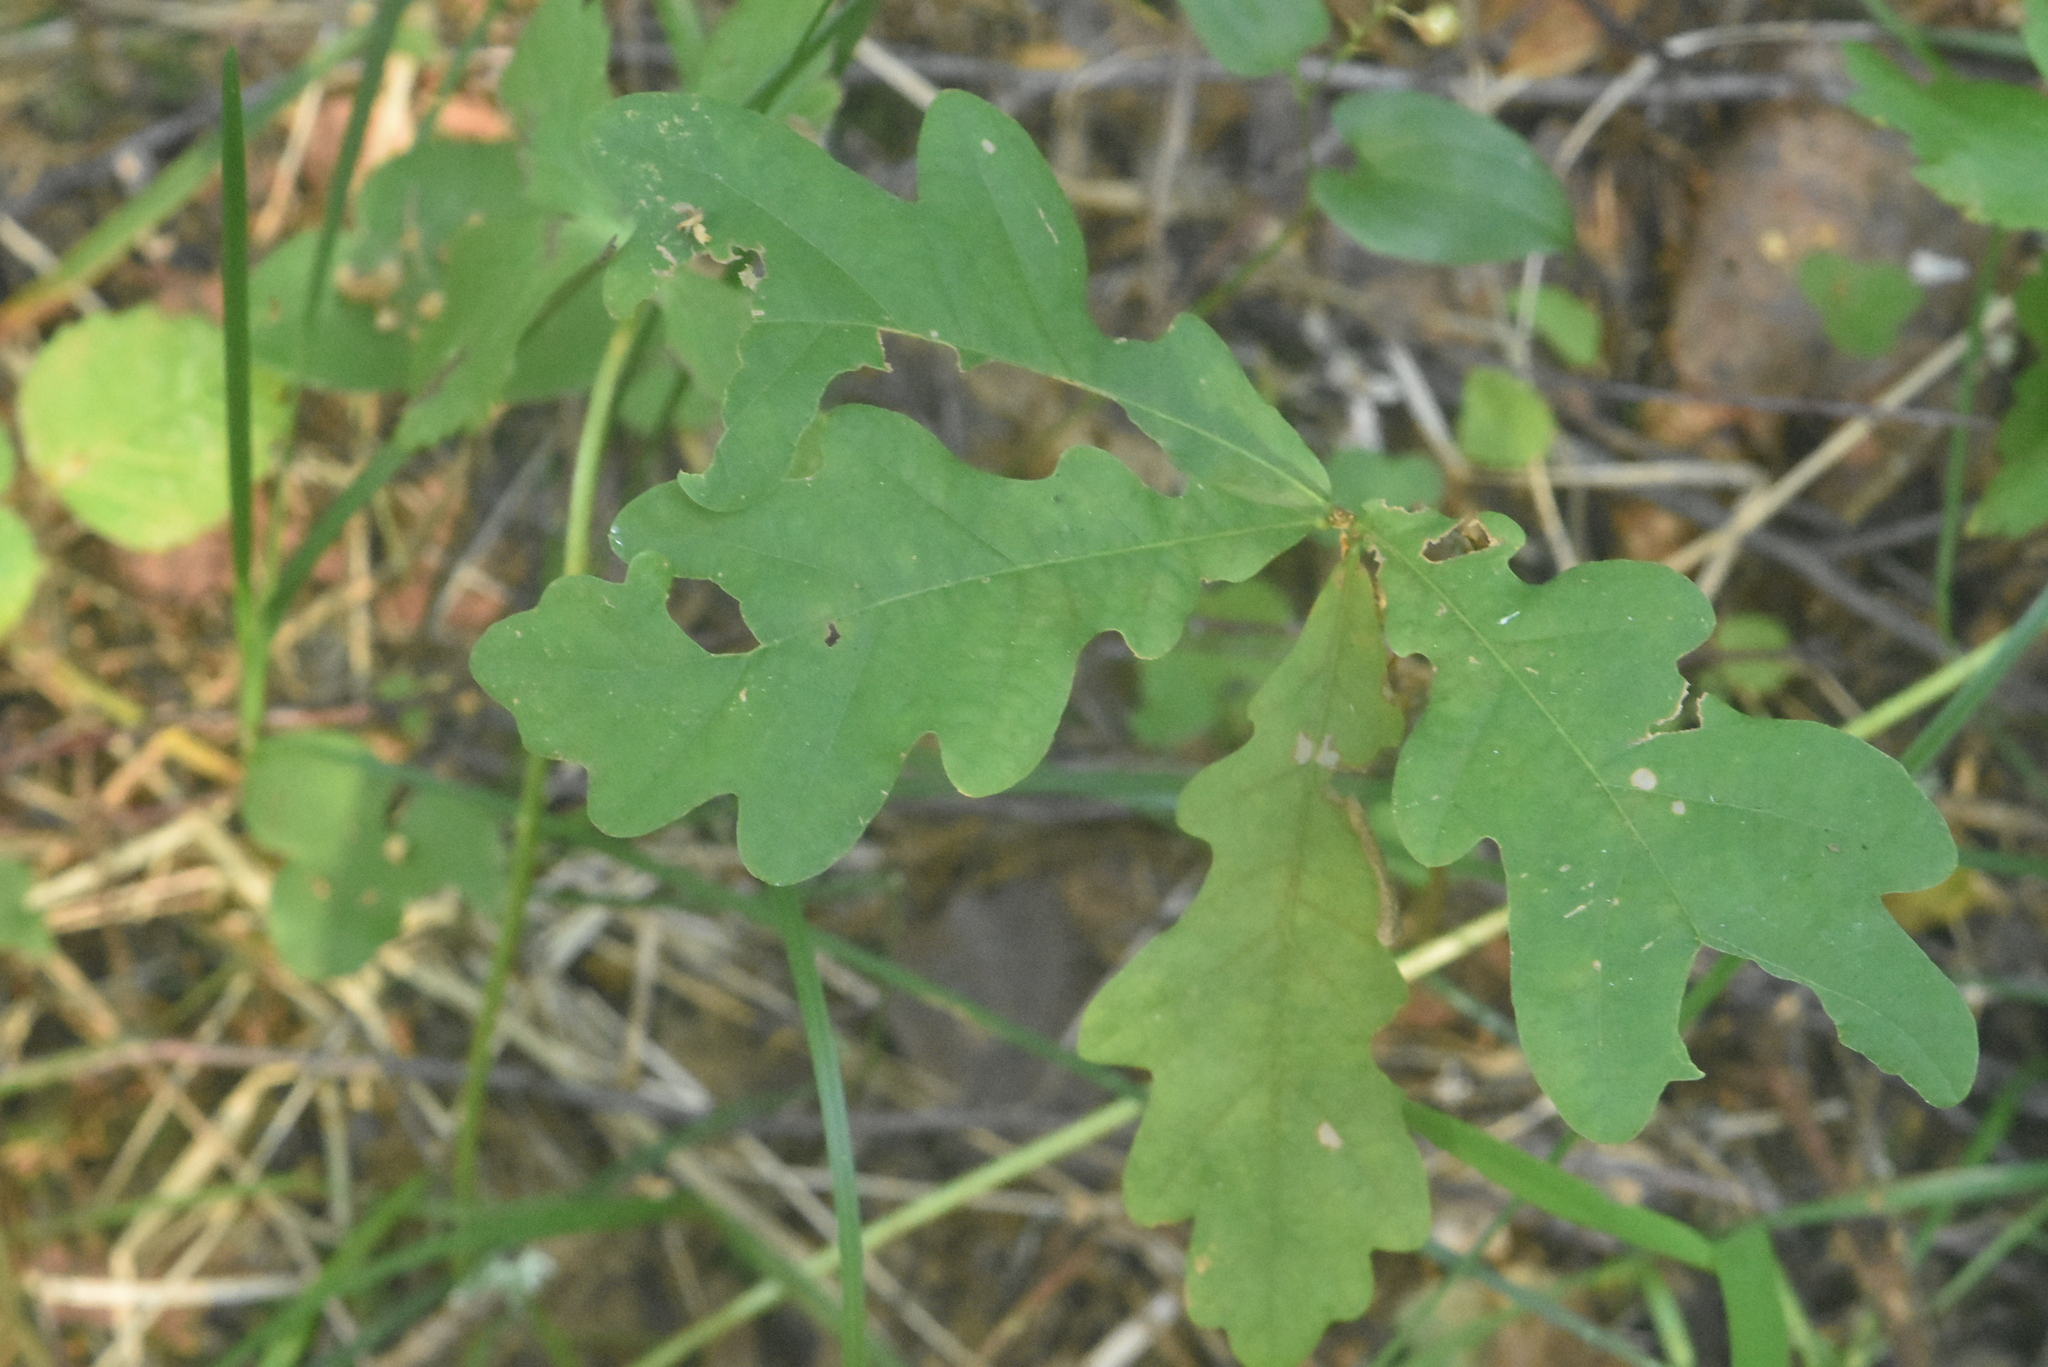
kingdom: Plantae
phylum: Tracheophyta
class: Magnoliopsida
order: Fagales
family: Fagaceae
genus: Quercus
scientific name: Quercus robur
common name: Pedunculate oak
